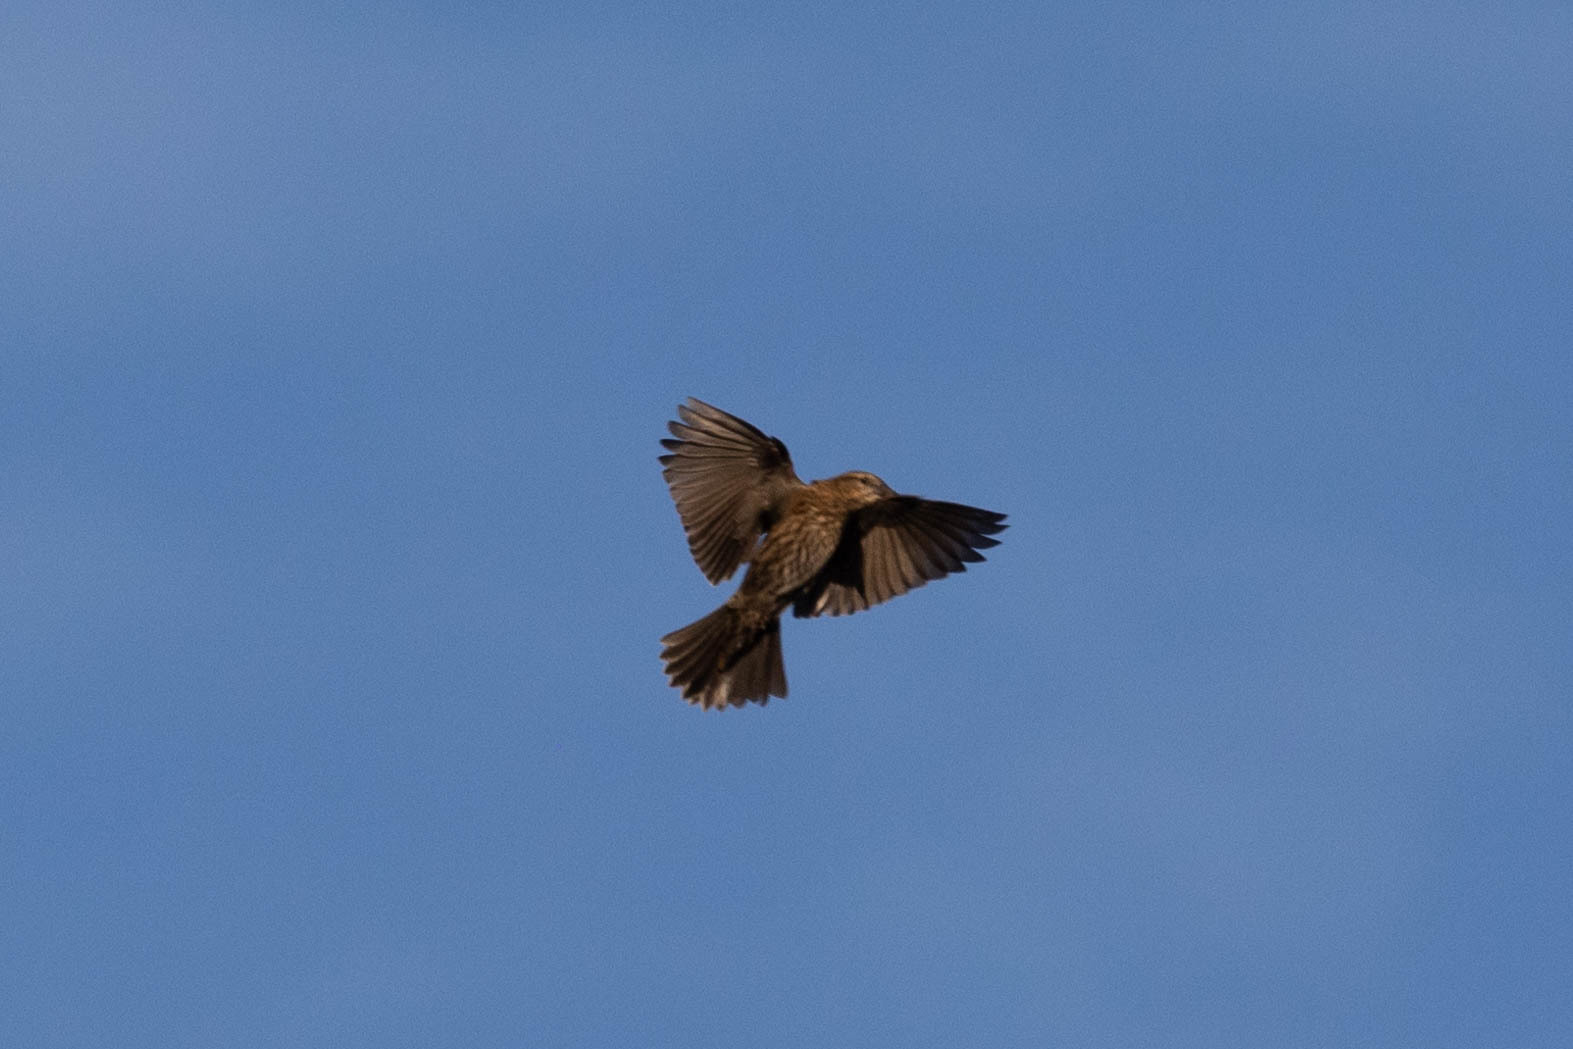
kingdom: Animalia
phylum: Chordata
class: Aves
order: Passeriformes
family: Icteridae
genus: Agelaius
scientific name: Agelaius phoeniceus
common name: Red-winged blackbird
